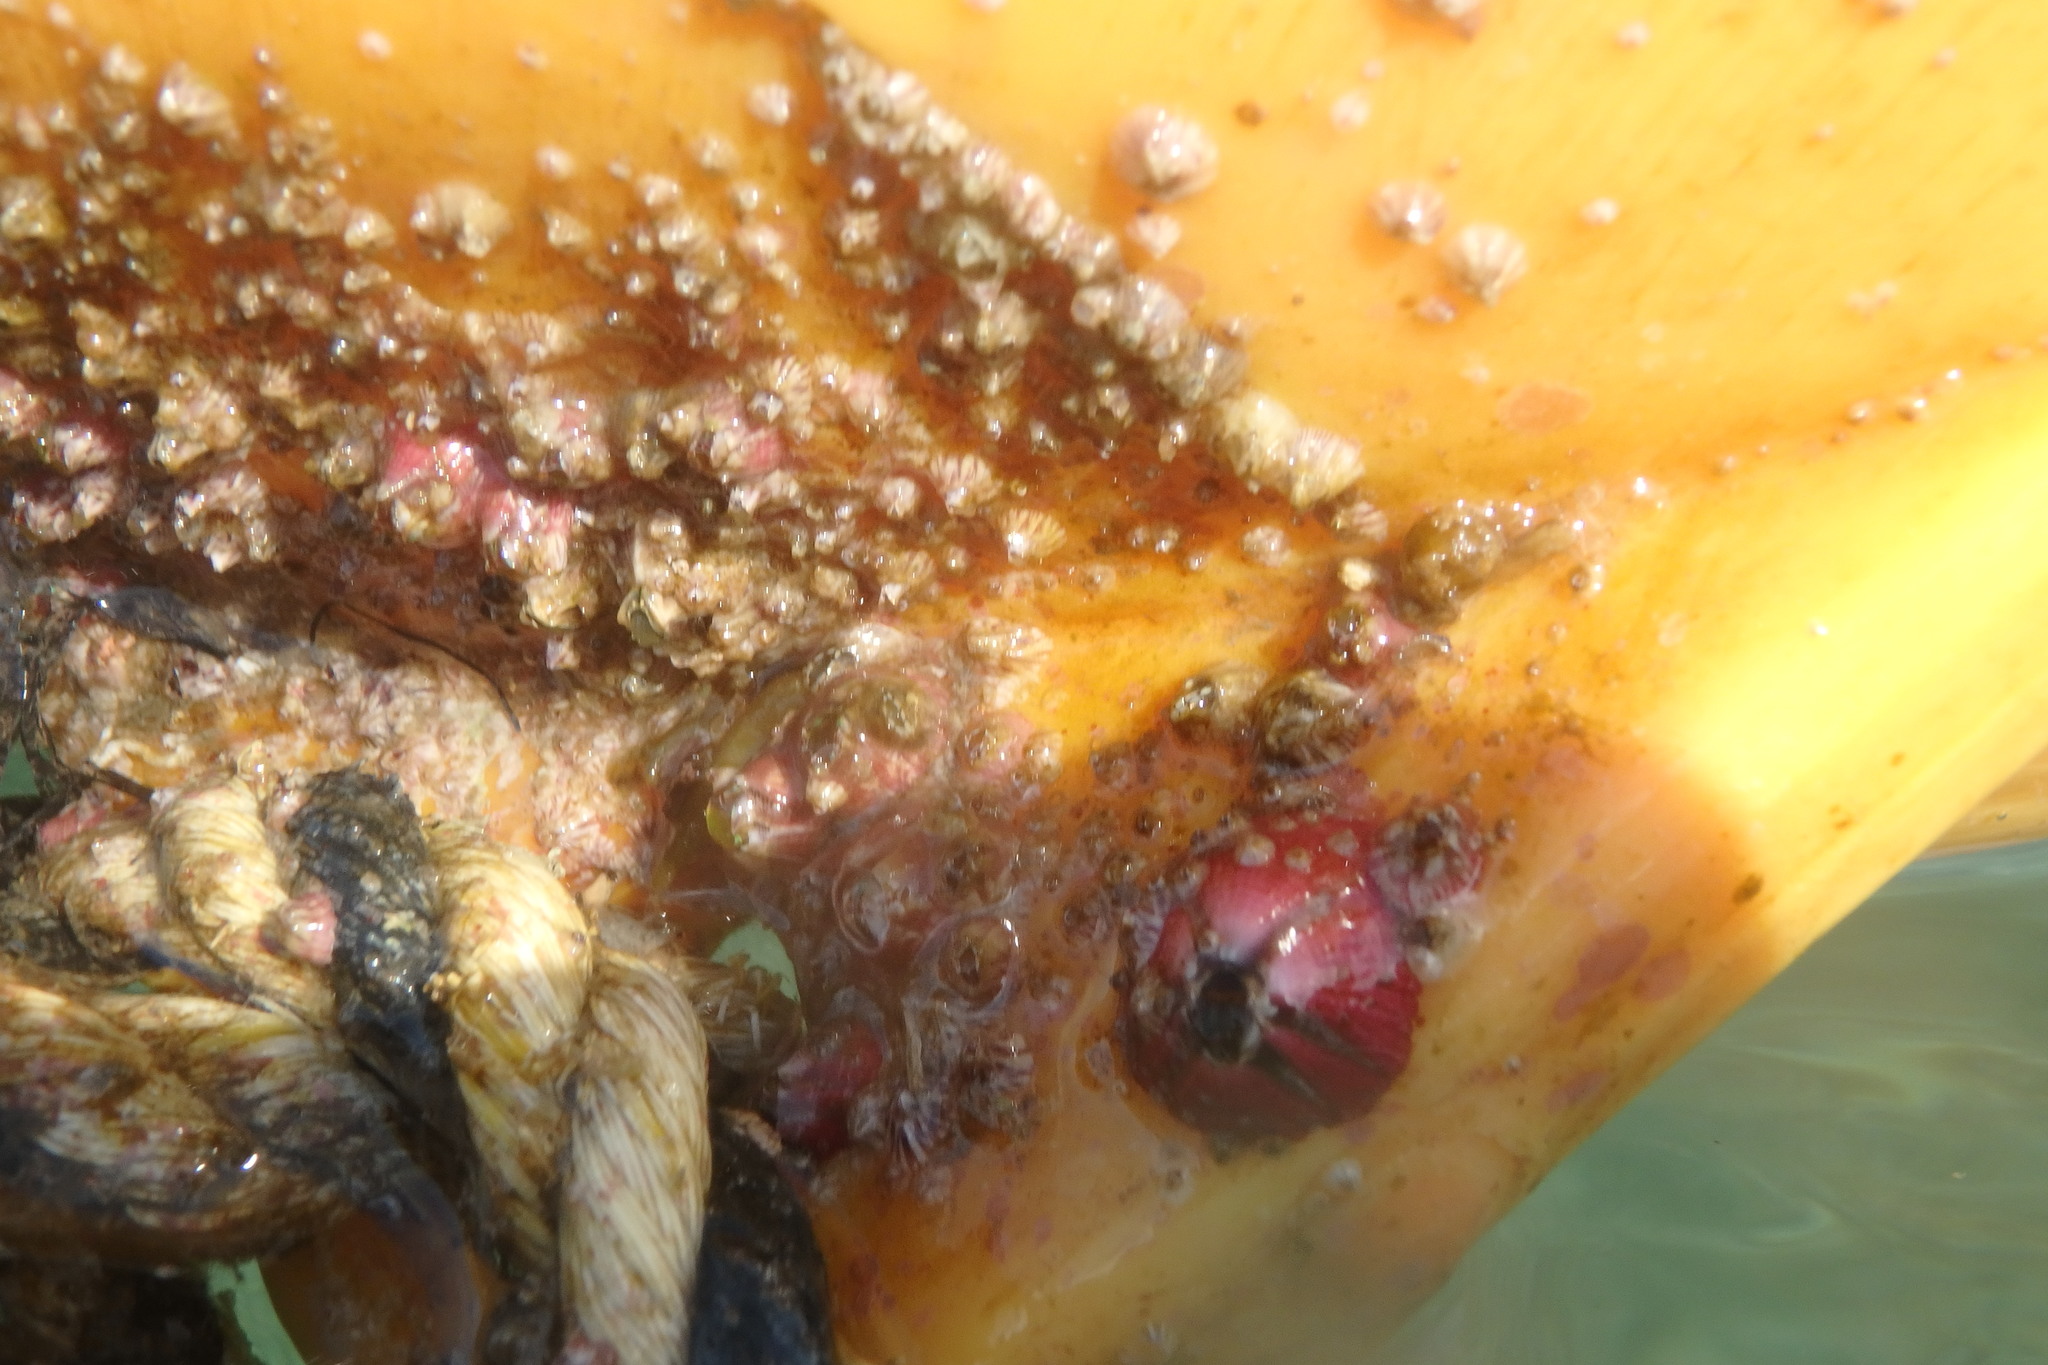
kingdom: Animalia
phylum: Arthropoda
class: Maxillopoda
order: Sessilia
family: Balanidae
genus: Megabalanus
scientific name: Megabalanus coccopoma
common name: Titan acorn barnacle
